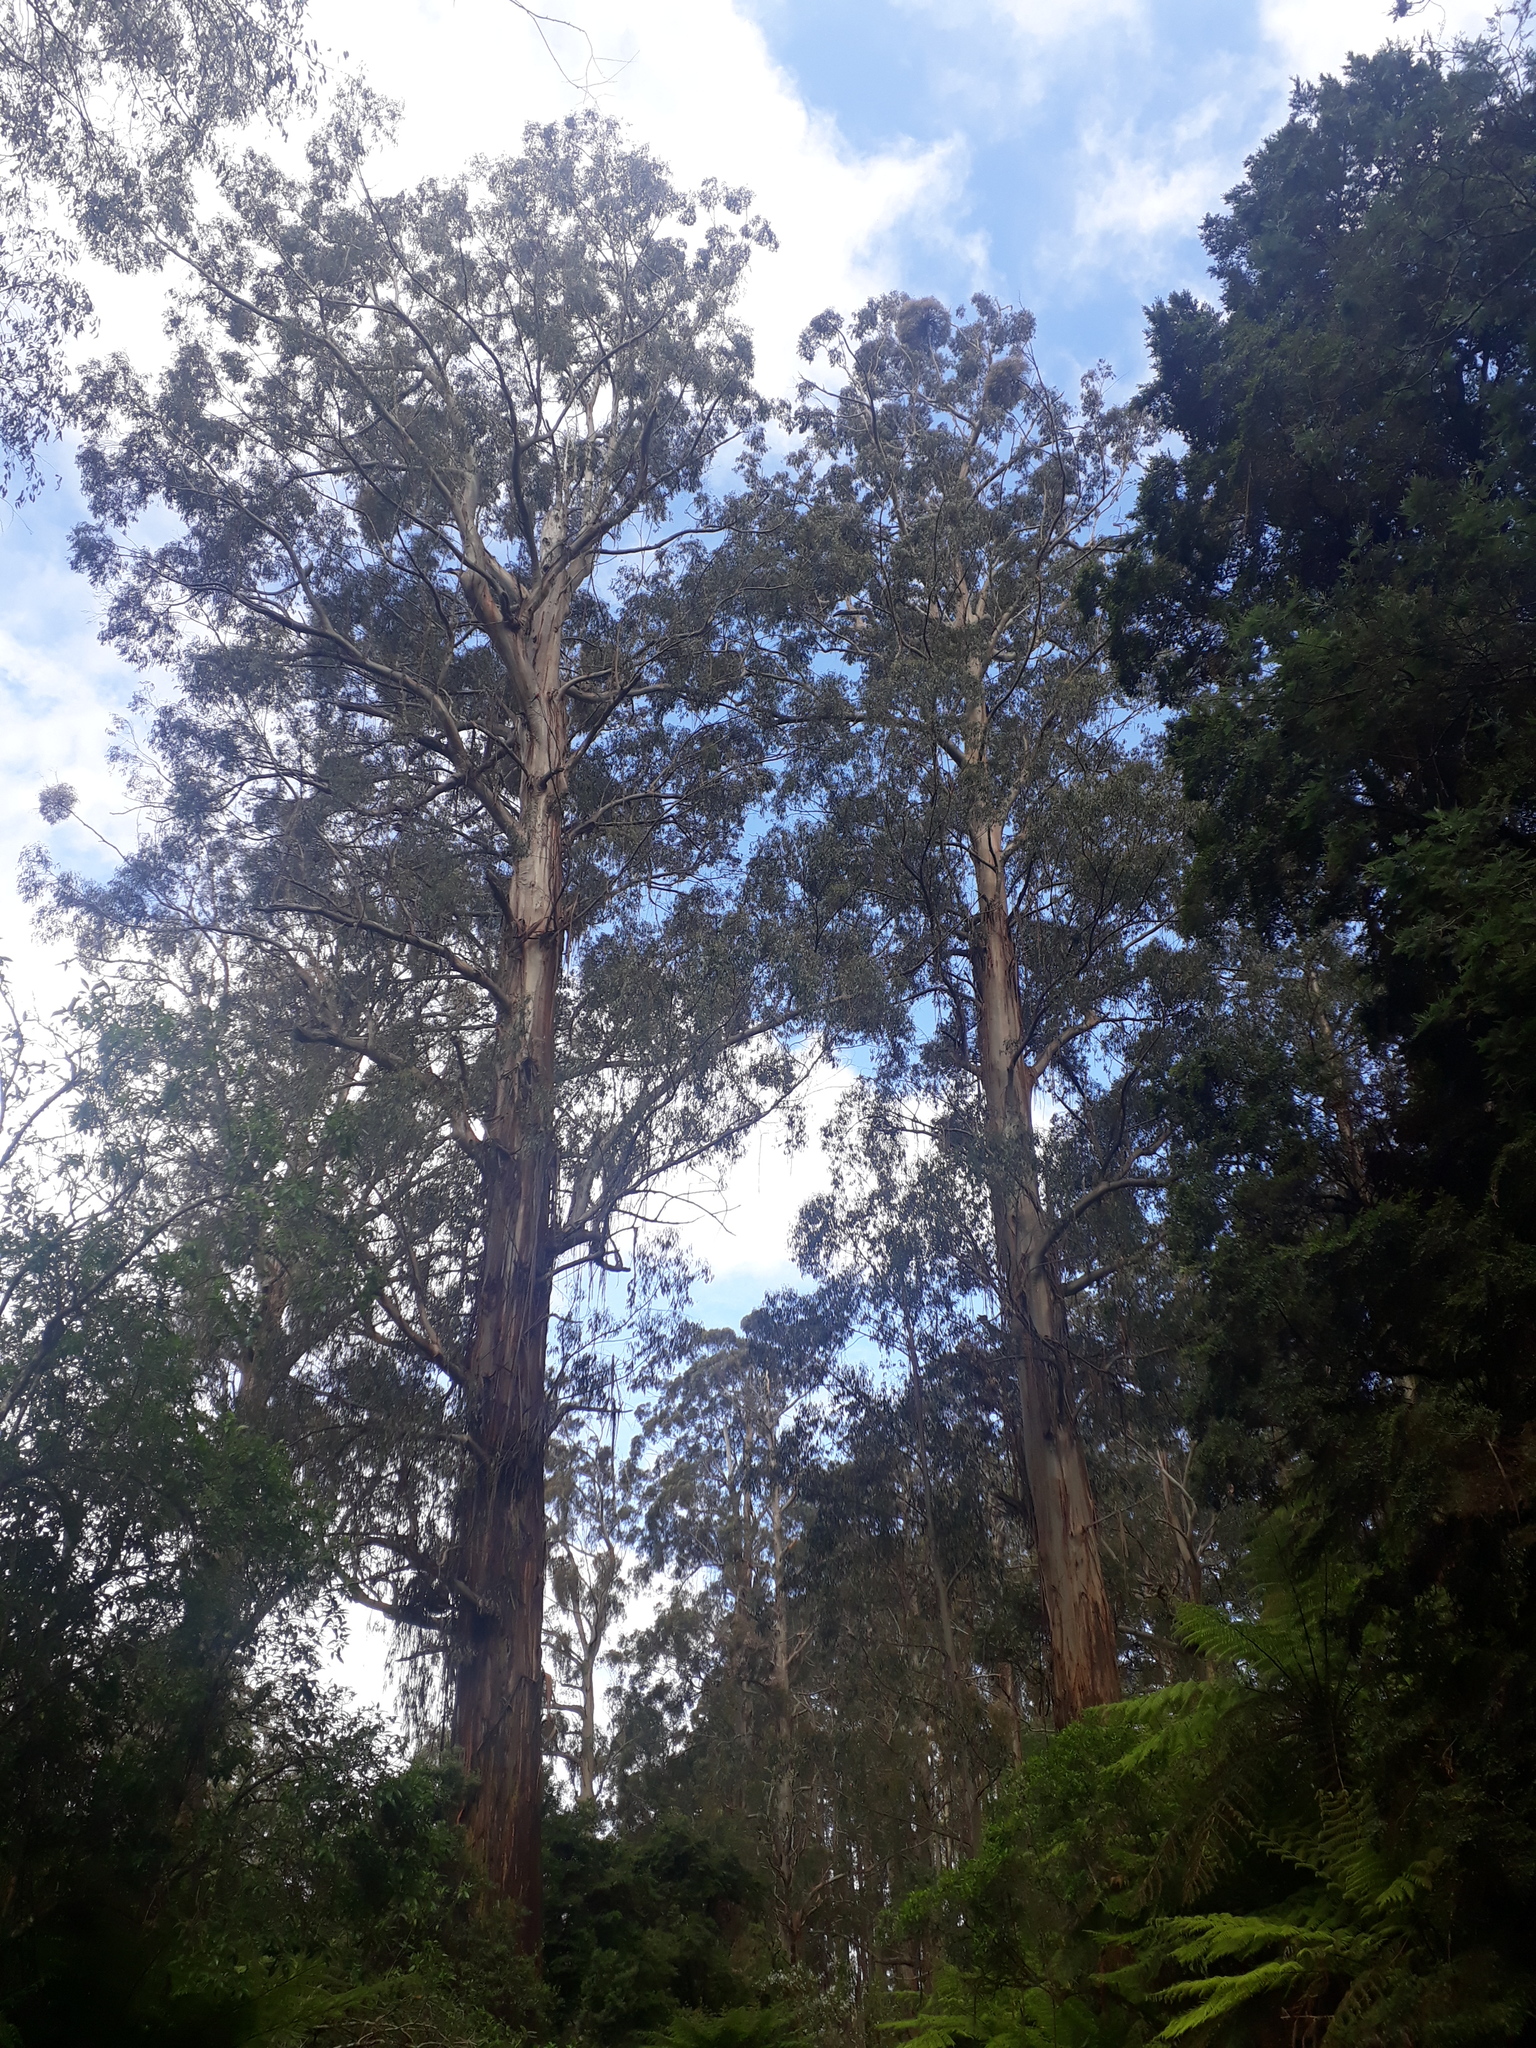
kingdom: Plantae
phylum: Tracheophyta
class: Magnoliopsida
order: Myrtales
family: Myrtaceae
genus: Eucalyptus
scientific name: Eucalyptus regnans
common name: Stringy gum
